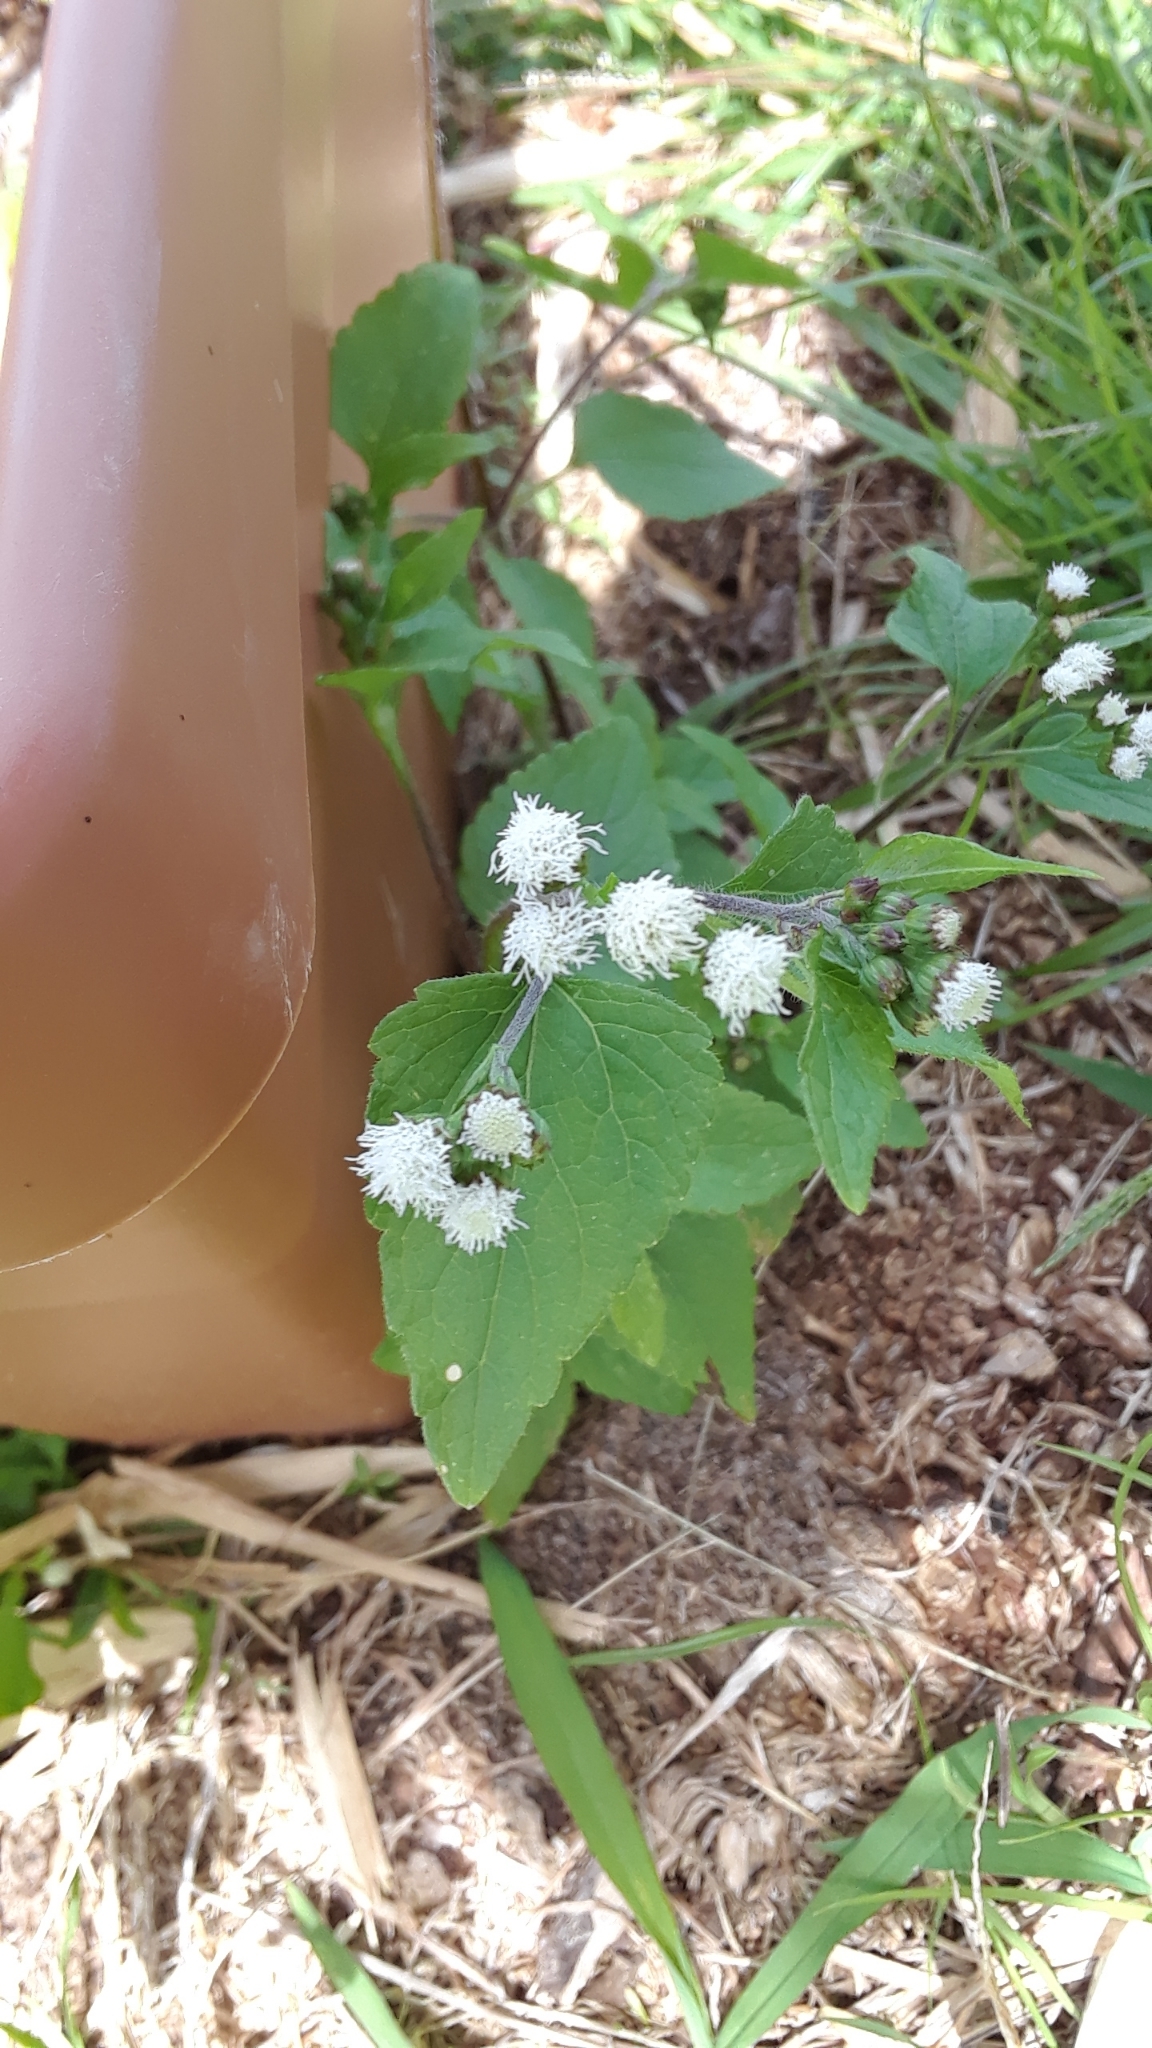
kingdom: Plantae
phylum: Tracheophyta
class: Magnoliopsida
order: Asterales
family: Asteraceae
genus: Ageratum
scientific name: Ageratum conyzoides
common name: Tropical whiteweed
